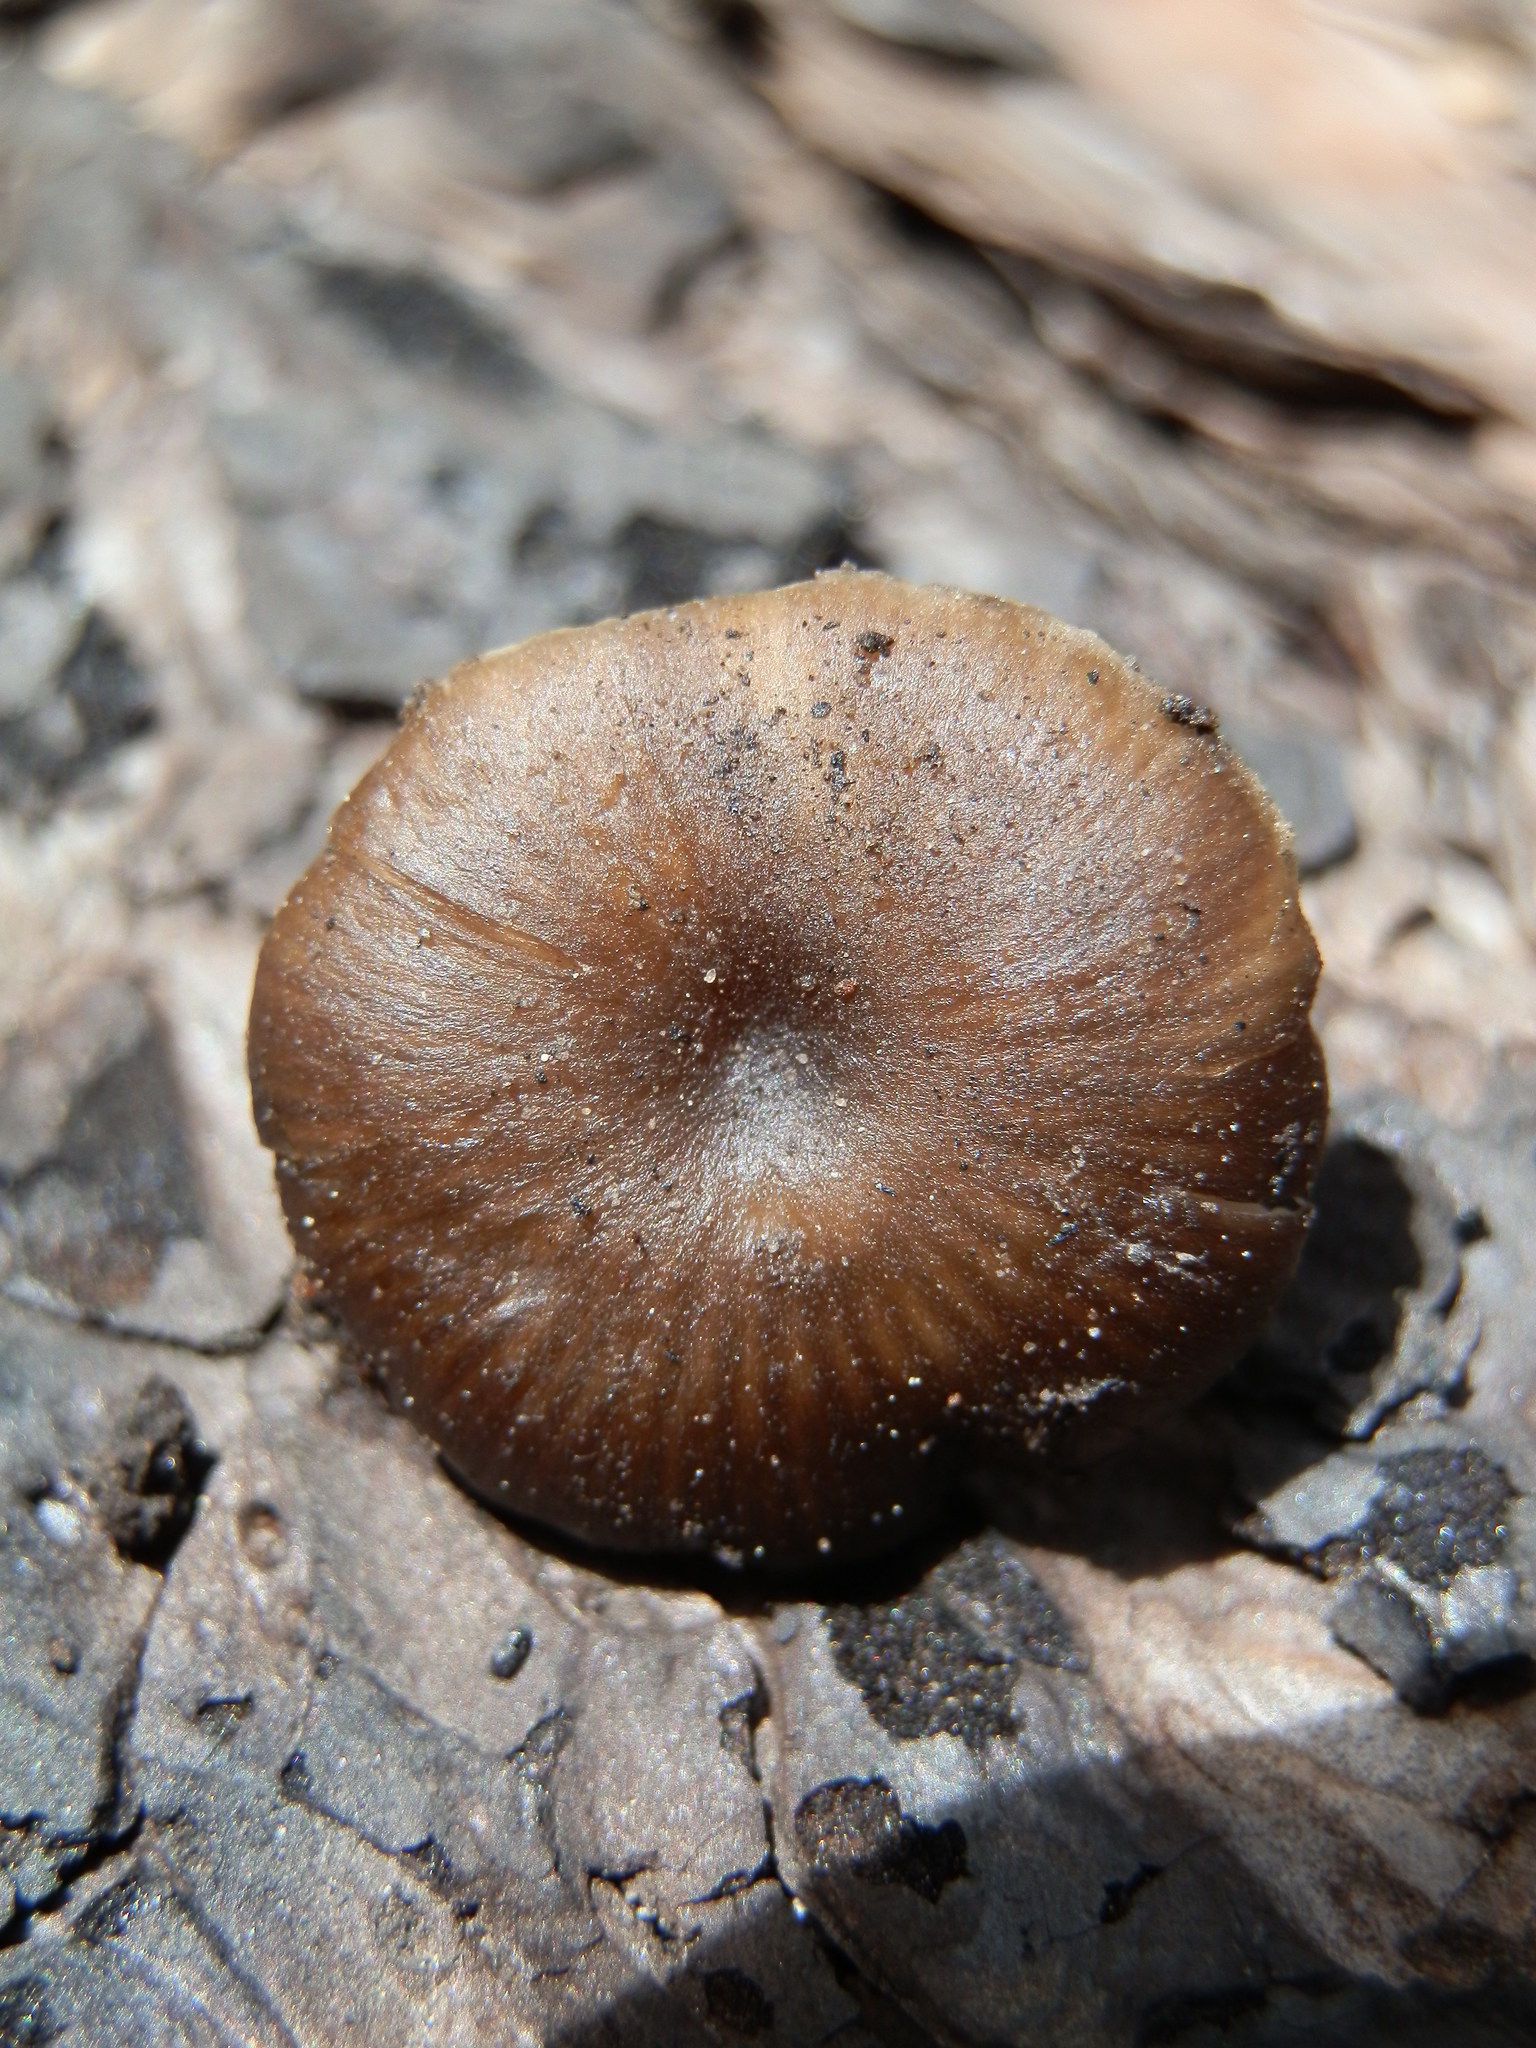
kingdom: Fungi
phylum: Basidiomycota
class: Agaricomycetes
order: Agaricales
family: Tricholomataceae
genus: Myxomphalia
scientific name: Myxomphalia maura
